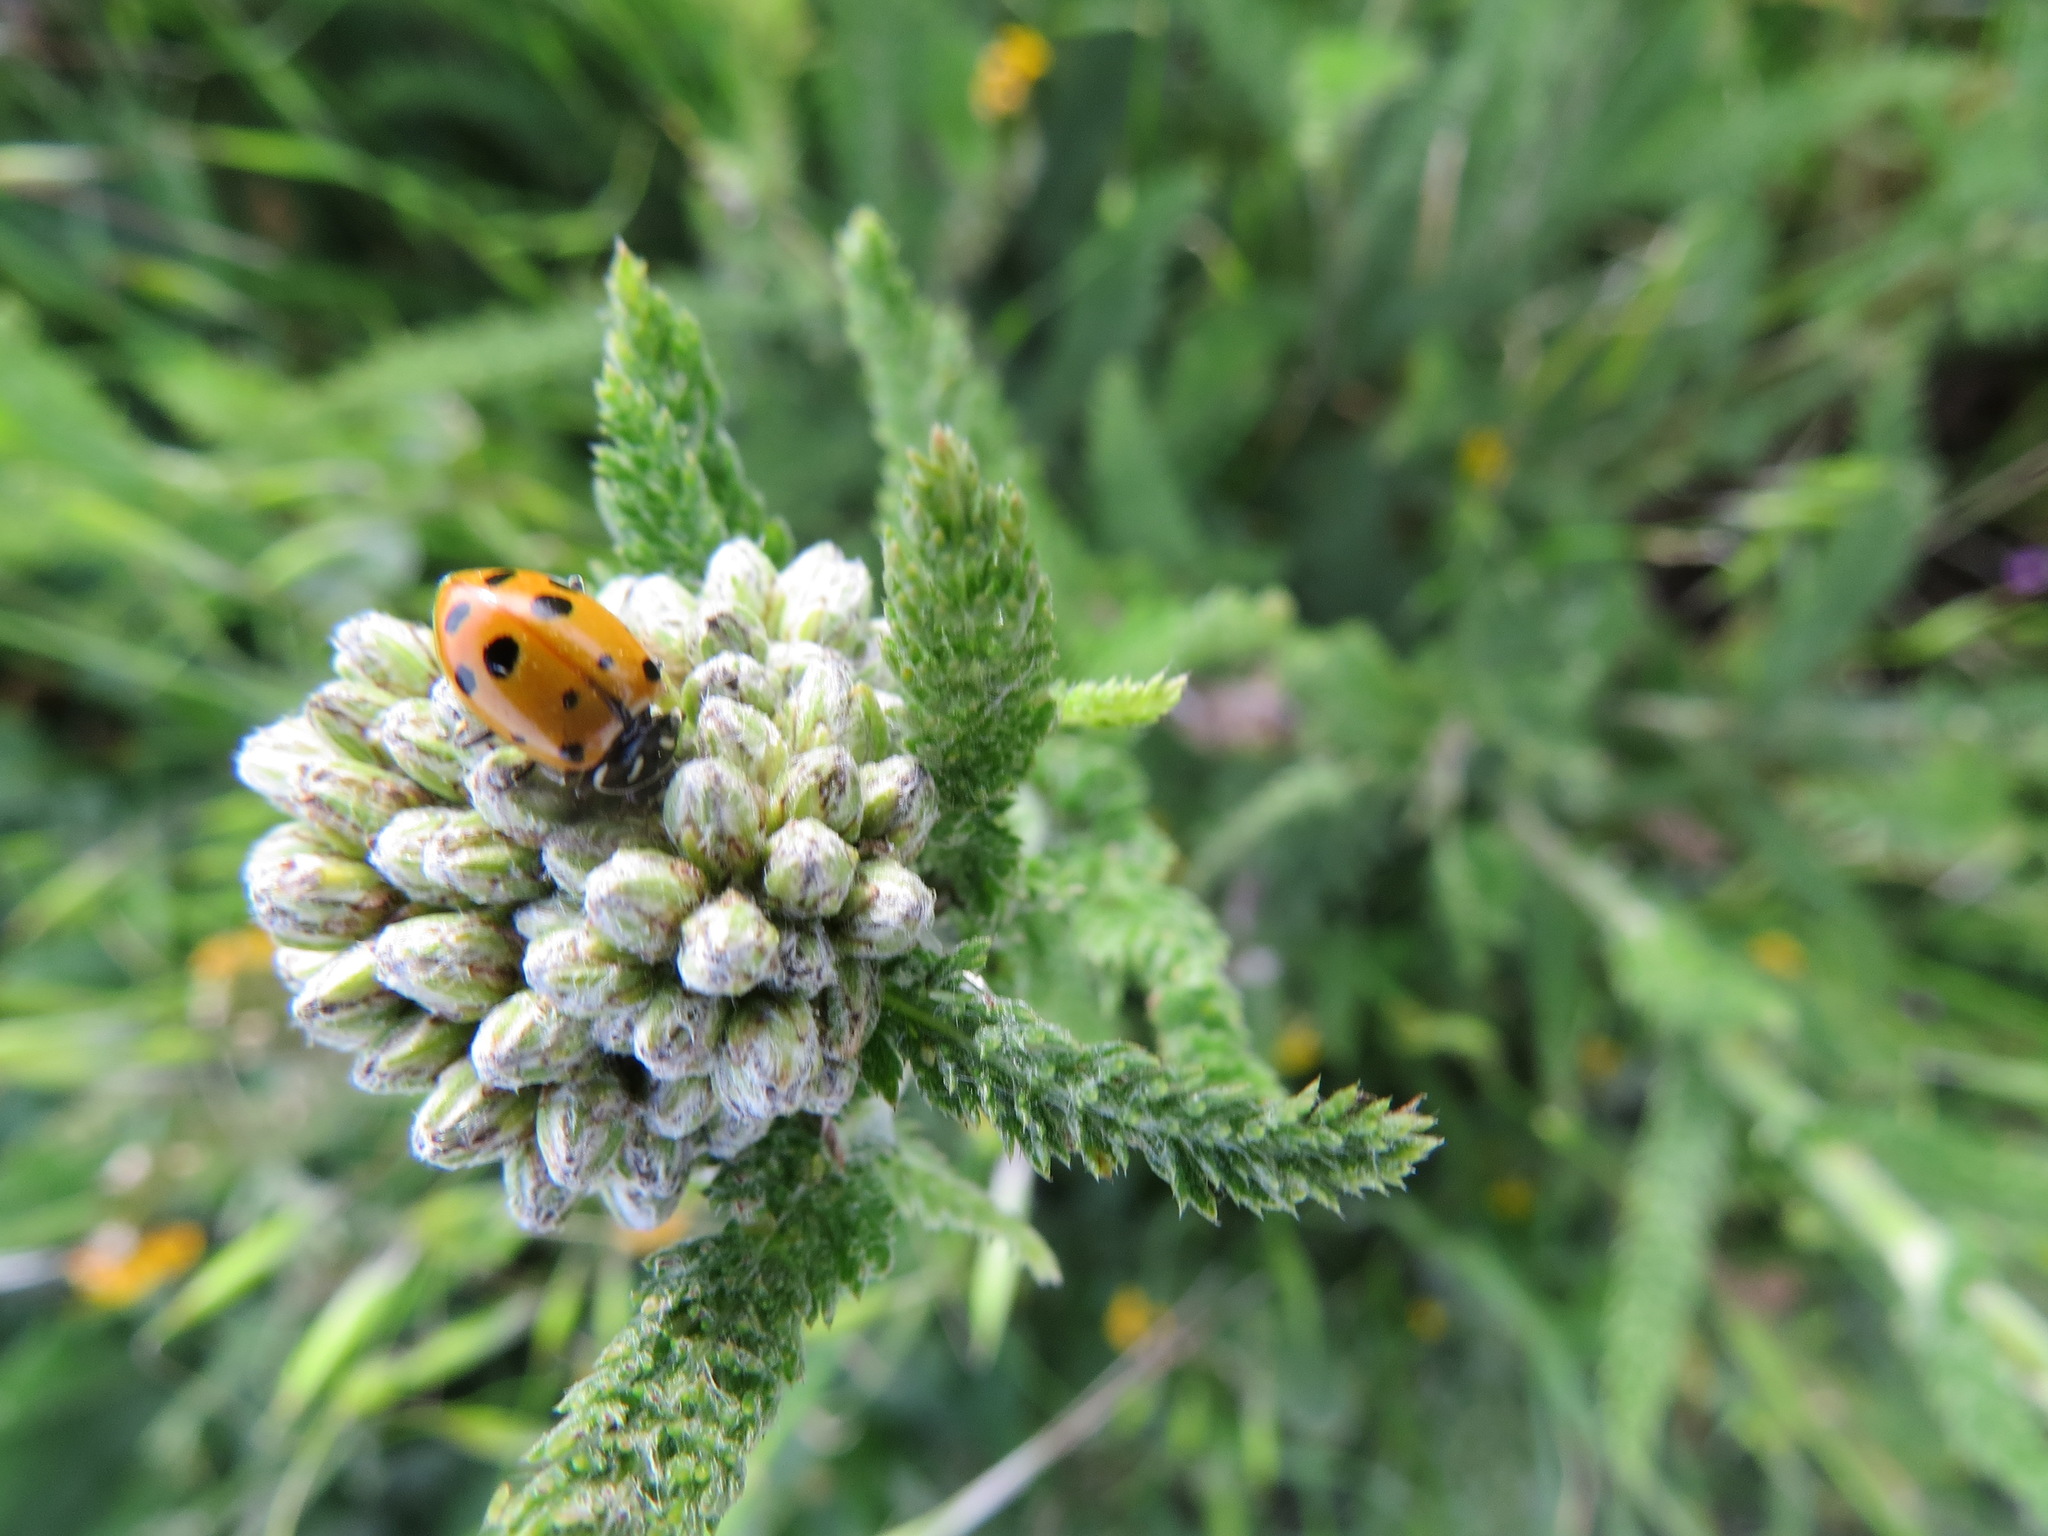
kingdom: Animalia
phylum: Arthropoda
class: Insecta
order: Coleoptera
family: Coccinellidae
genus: Hippodamia
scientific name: Hippodamia convergens
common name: Convergent lady beetle
